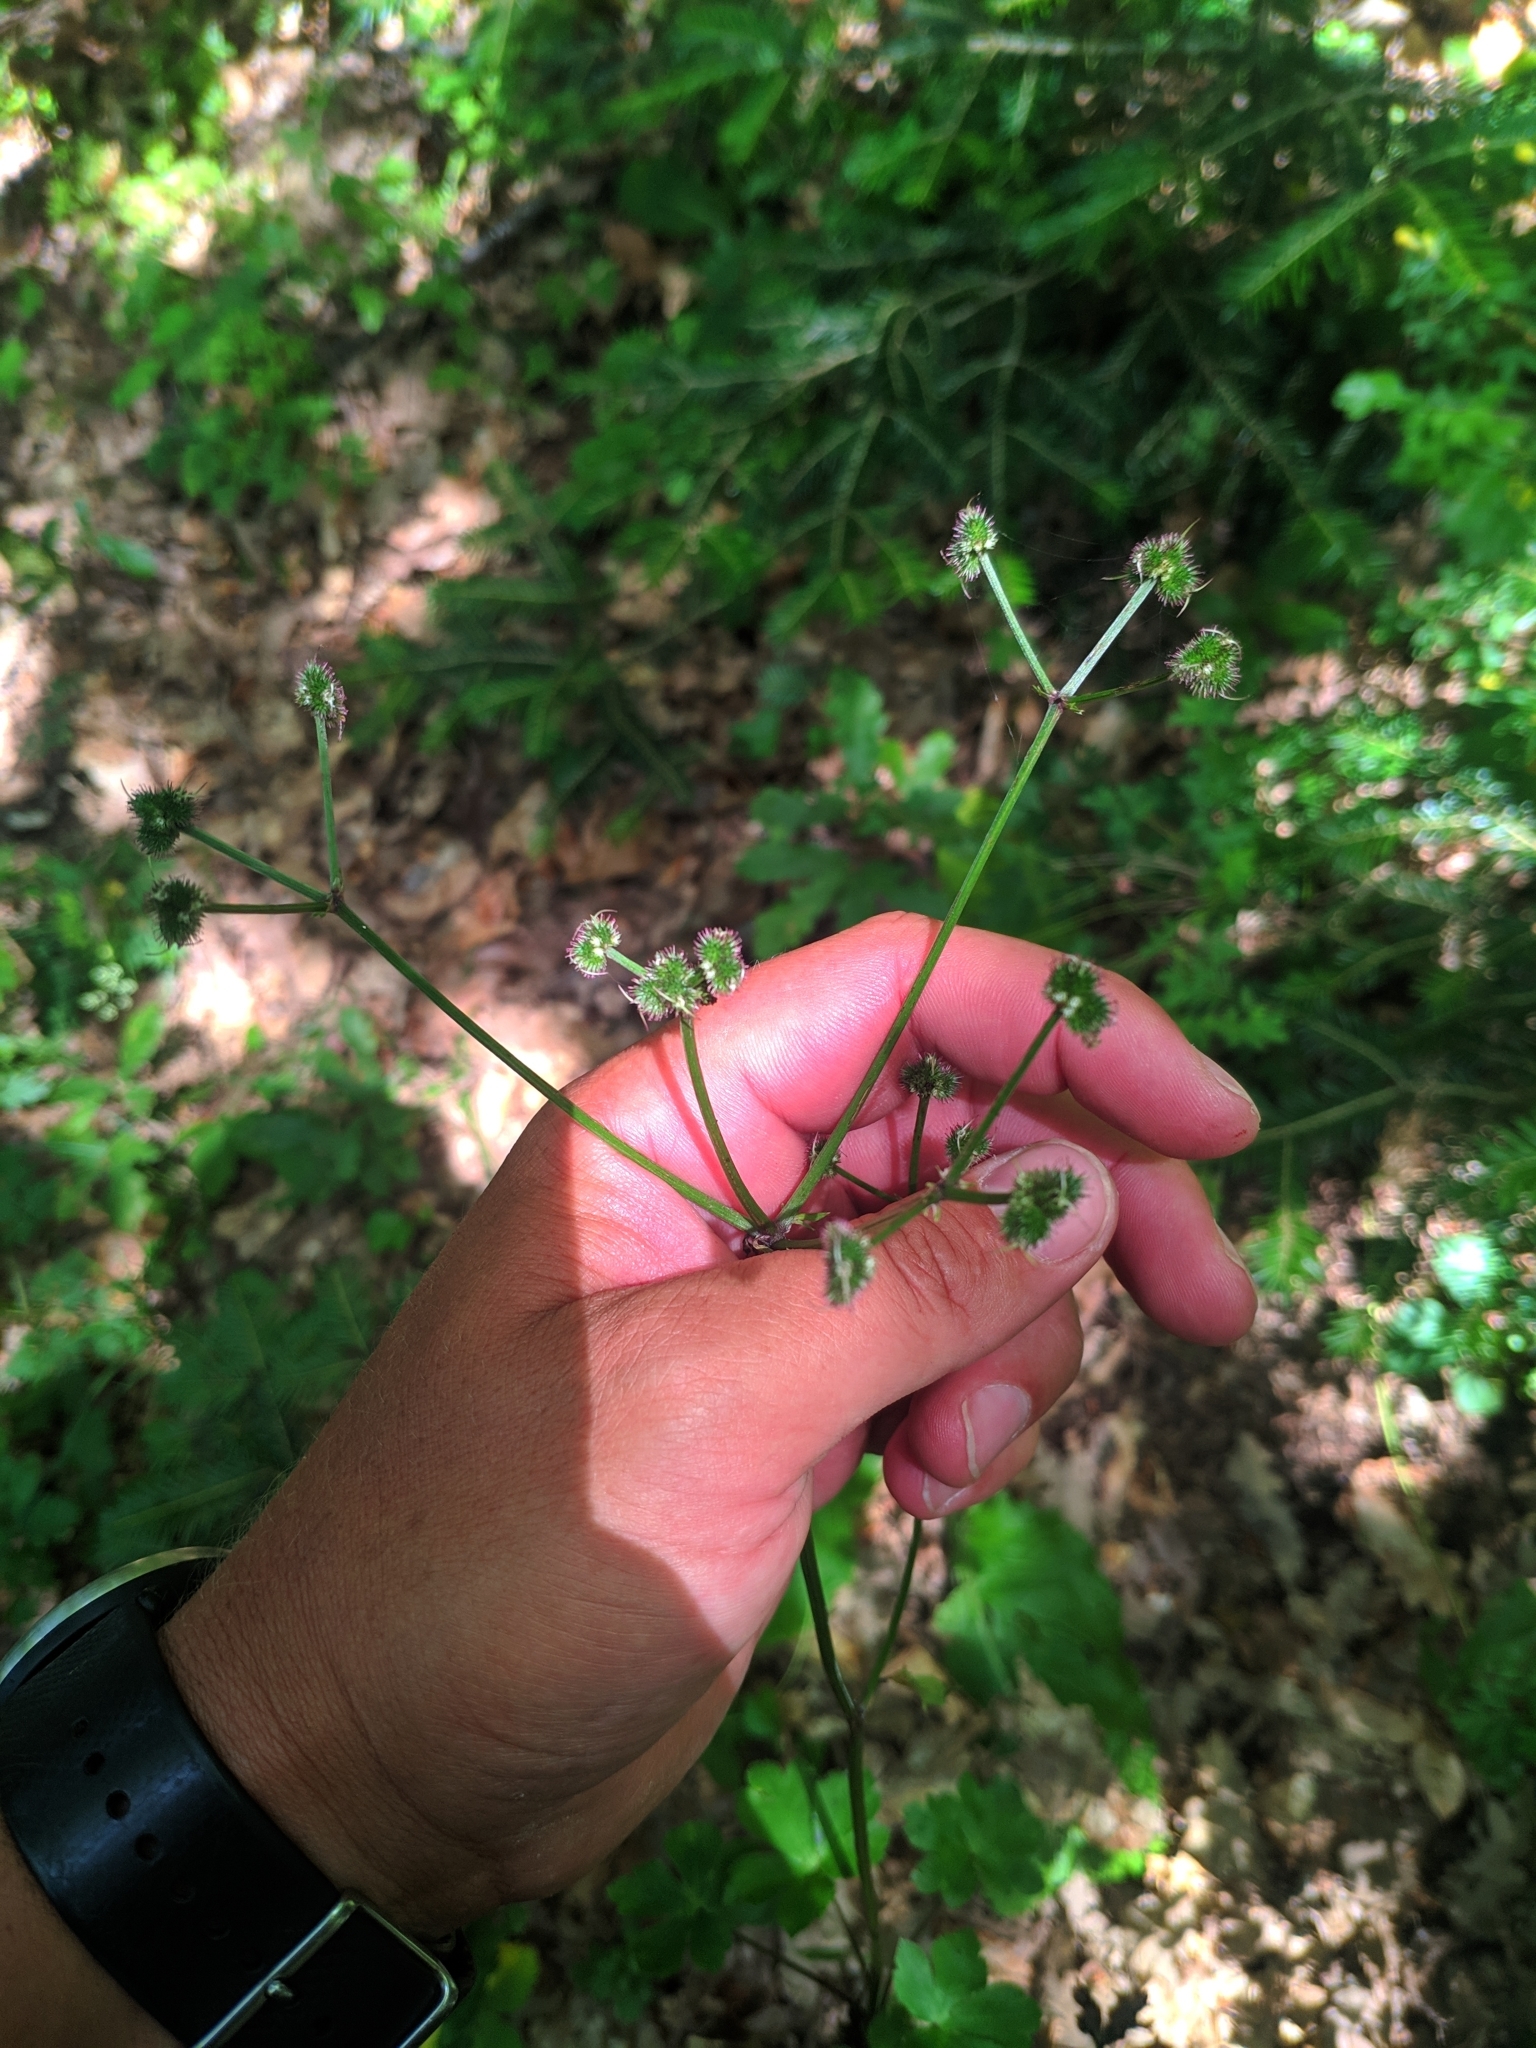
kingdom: Plantae
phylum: Tracheophyta
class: Magnoliopsida
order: Apiales
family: Apiaceae
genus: Sanicula
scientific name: Sanicula europaea
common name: Sanicle
